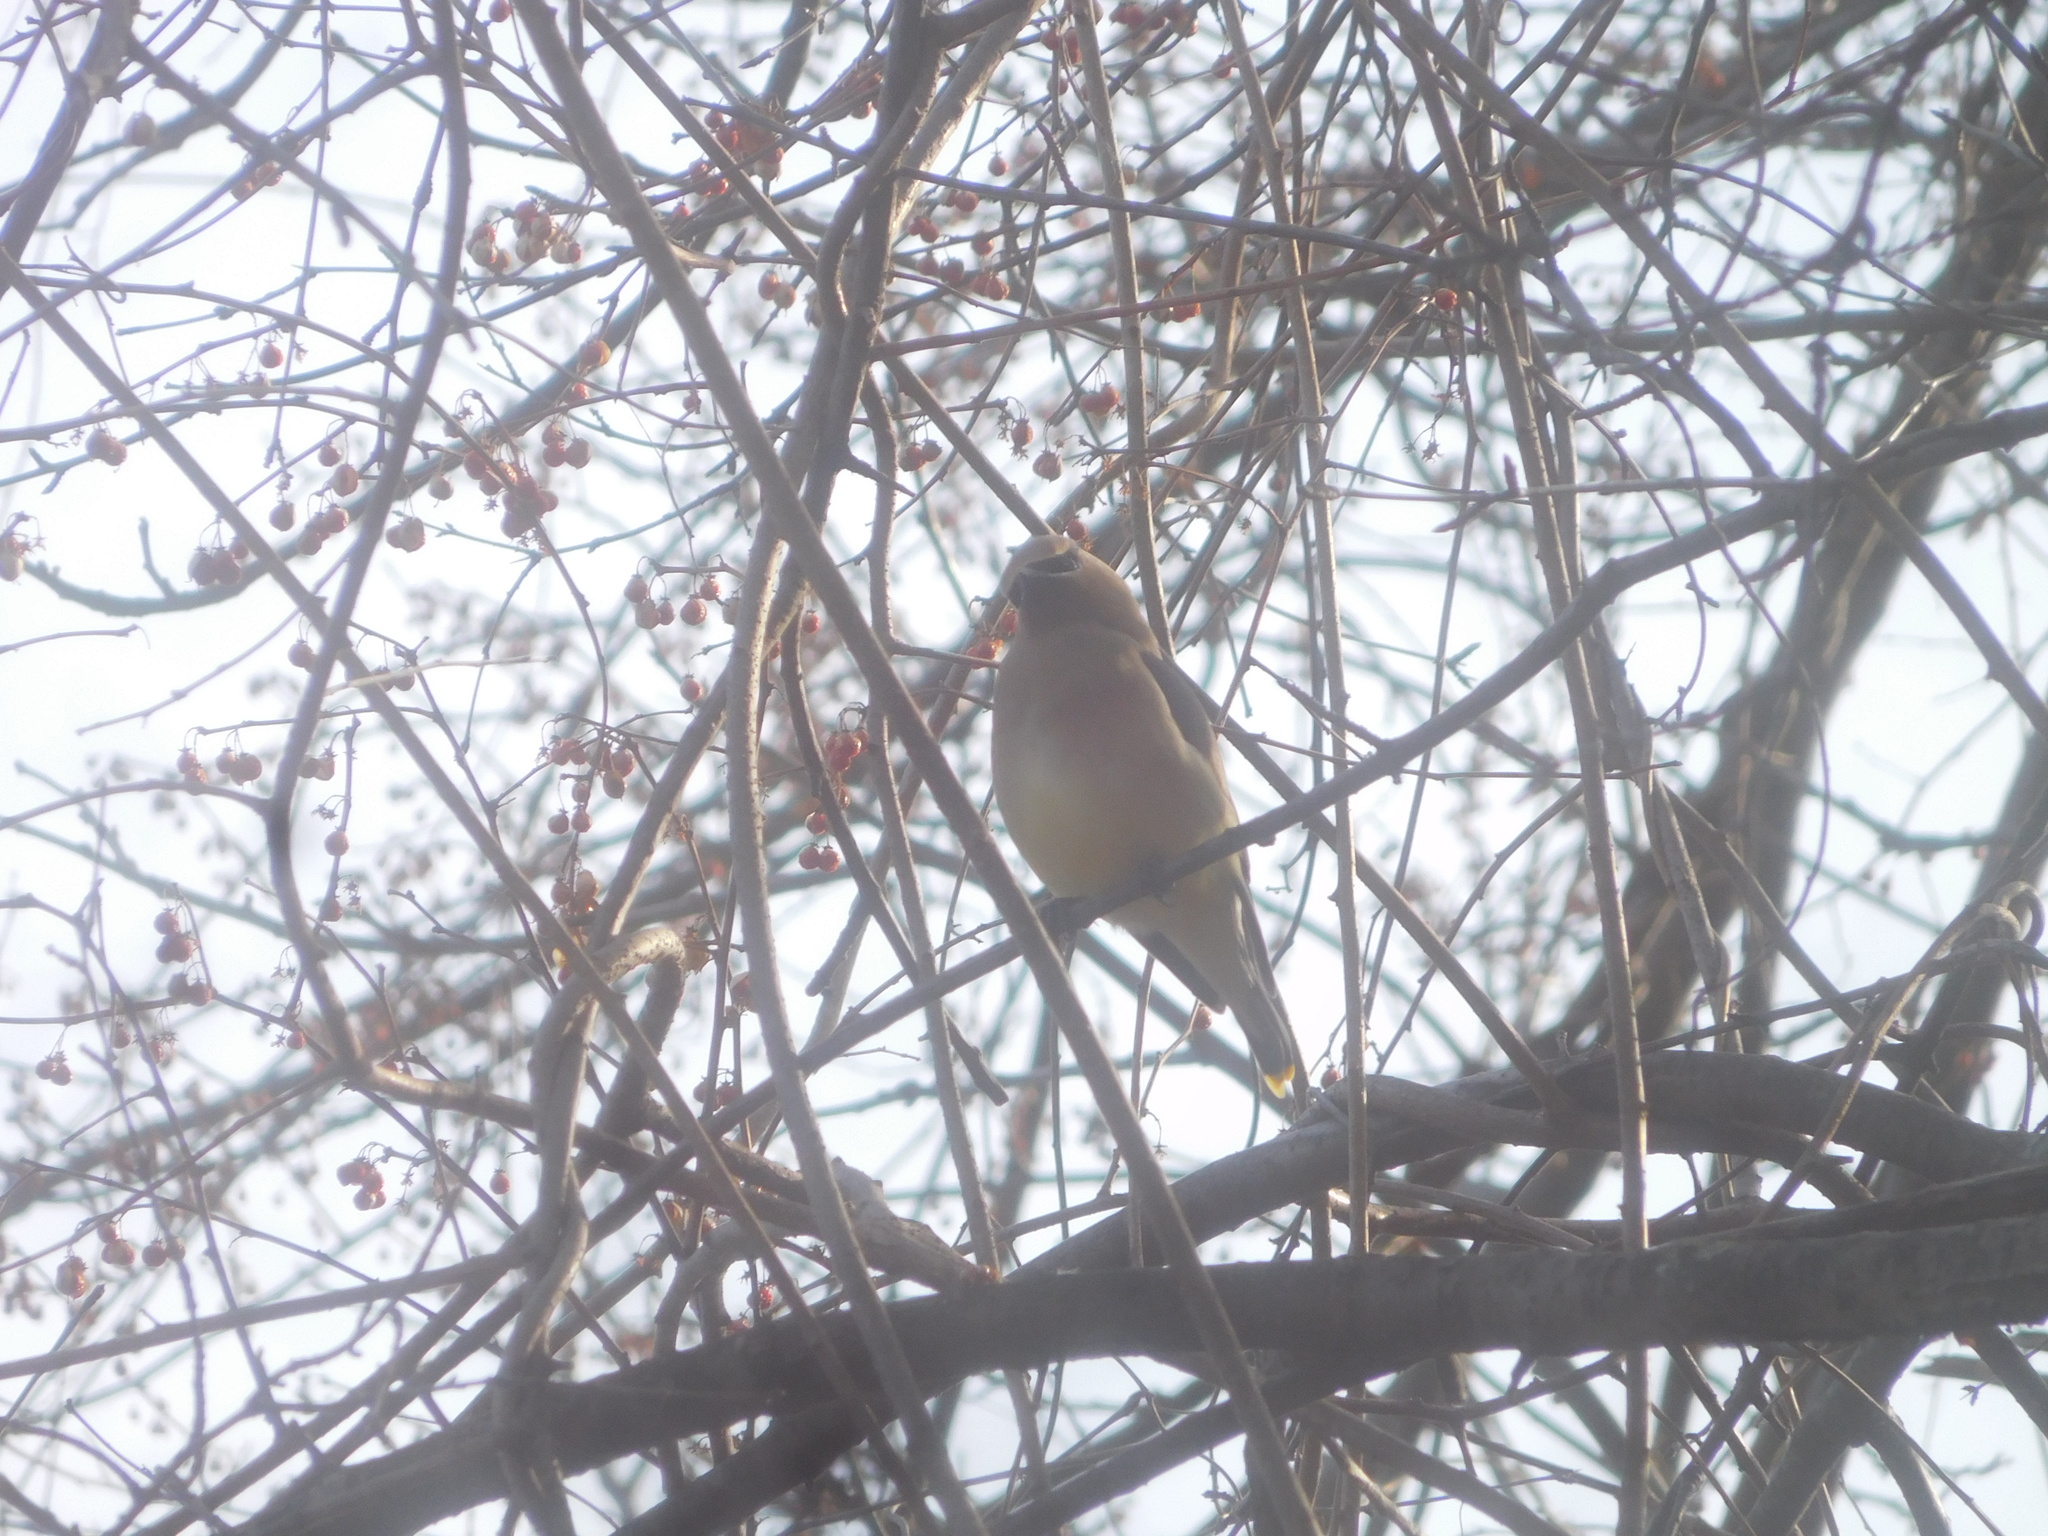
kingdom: Animalia
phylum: Chordata
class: Aves
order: Passeriformes
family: Bombycillidae
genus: Bombycilla
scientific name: Bombycilla cedrorum
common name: Cedar waxwing
